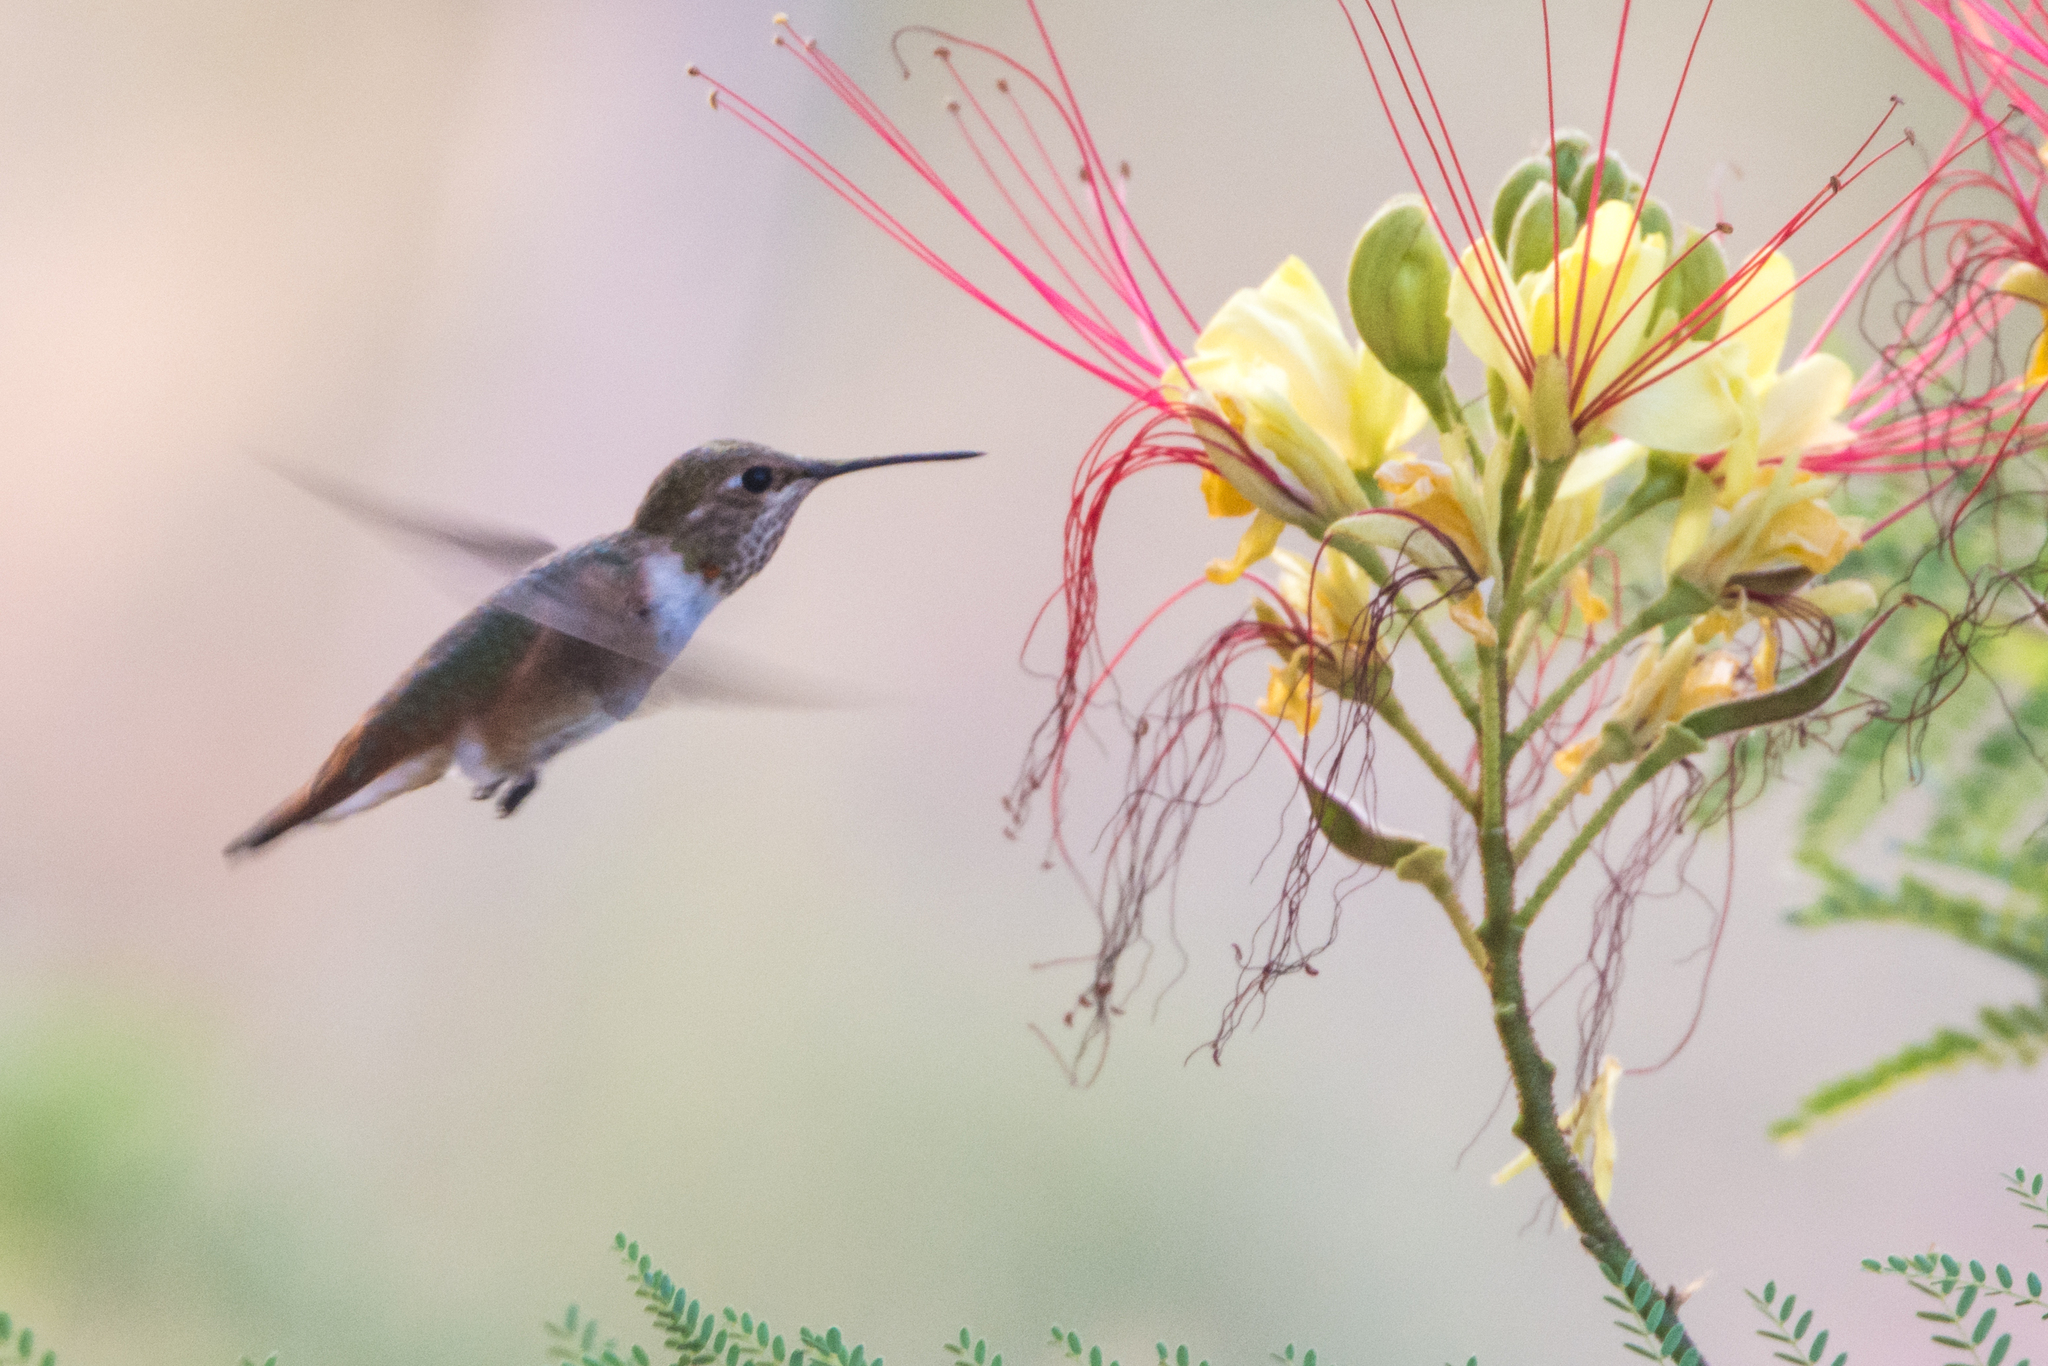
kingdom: Animalia
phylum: Chordata
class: Aves
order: Apodiformes
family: Trochilidae
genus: Selasphorus
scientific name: Selasphorus rufus
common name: Rufous hummingbird
